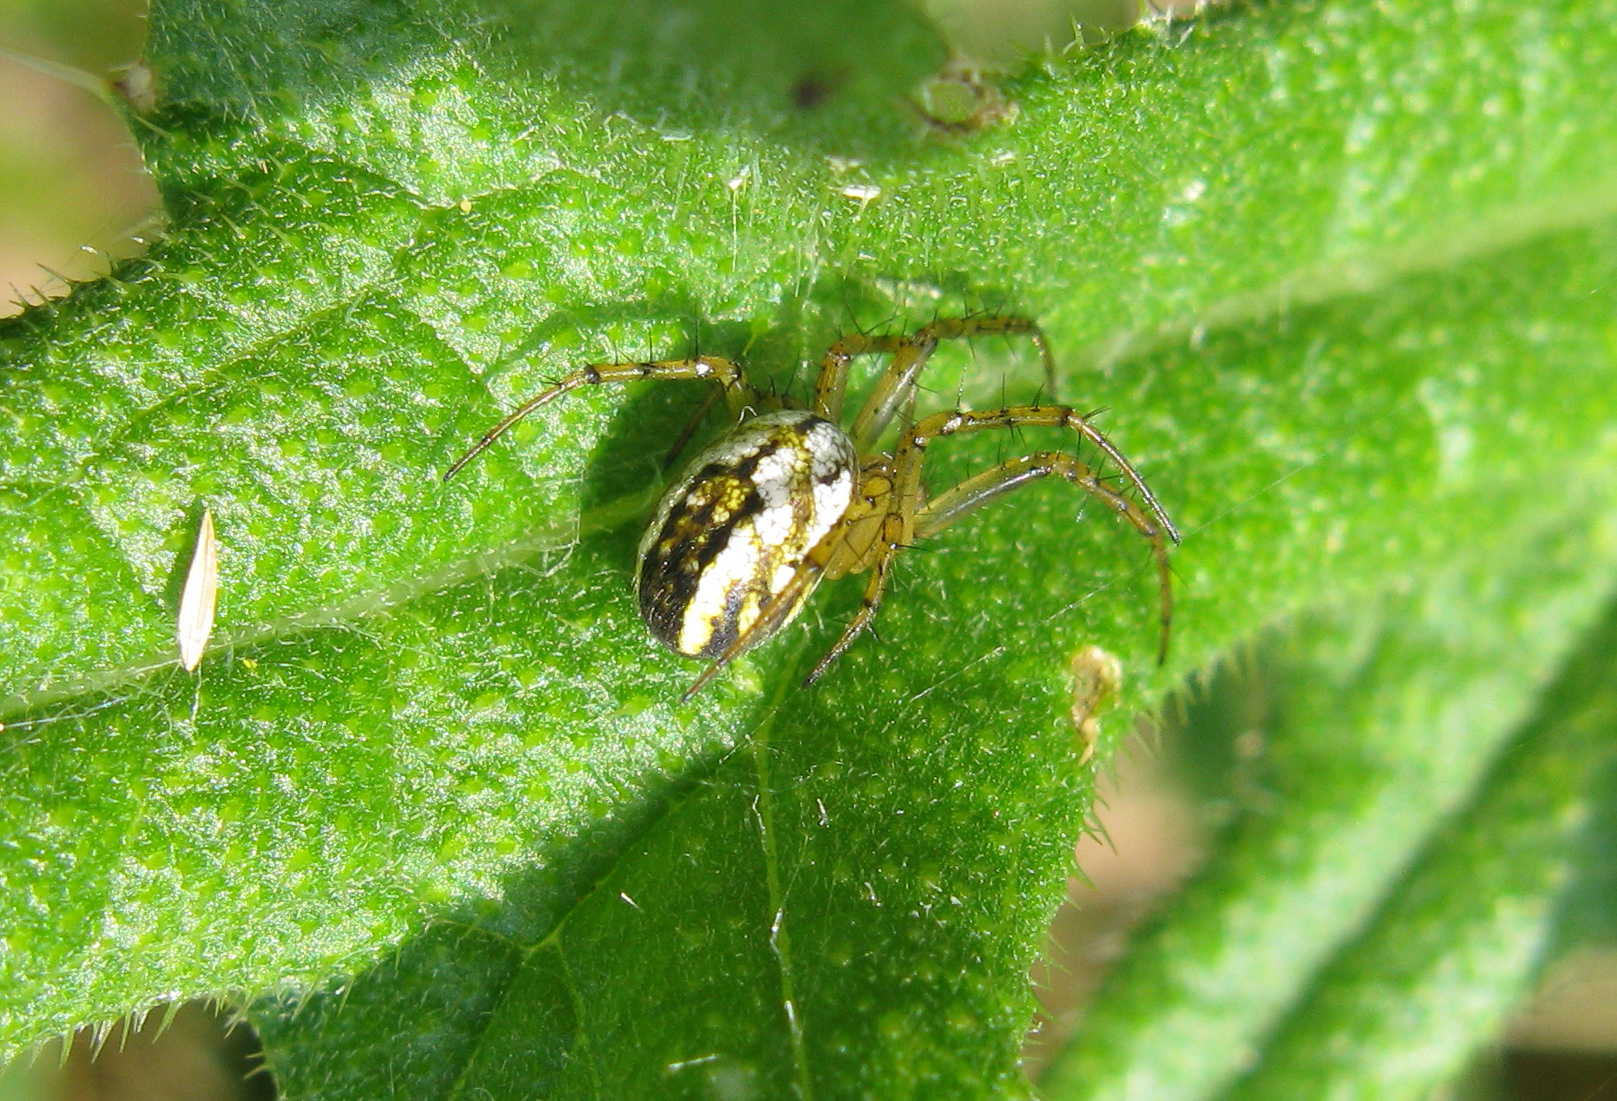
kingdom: Animalia
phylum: Arthropoda
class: Arachnida
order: Araneae
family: Araneidae
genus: Mangora
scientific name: Mangora acalypha
